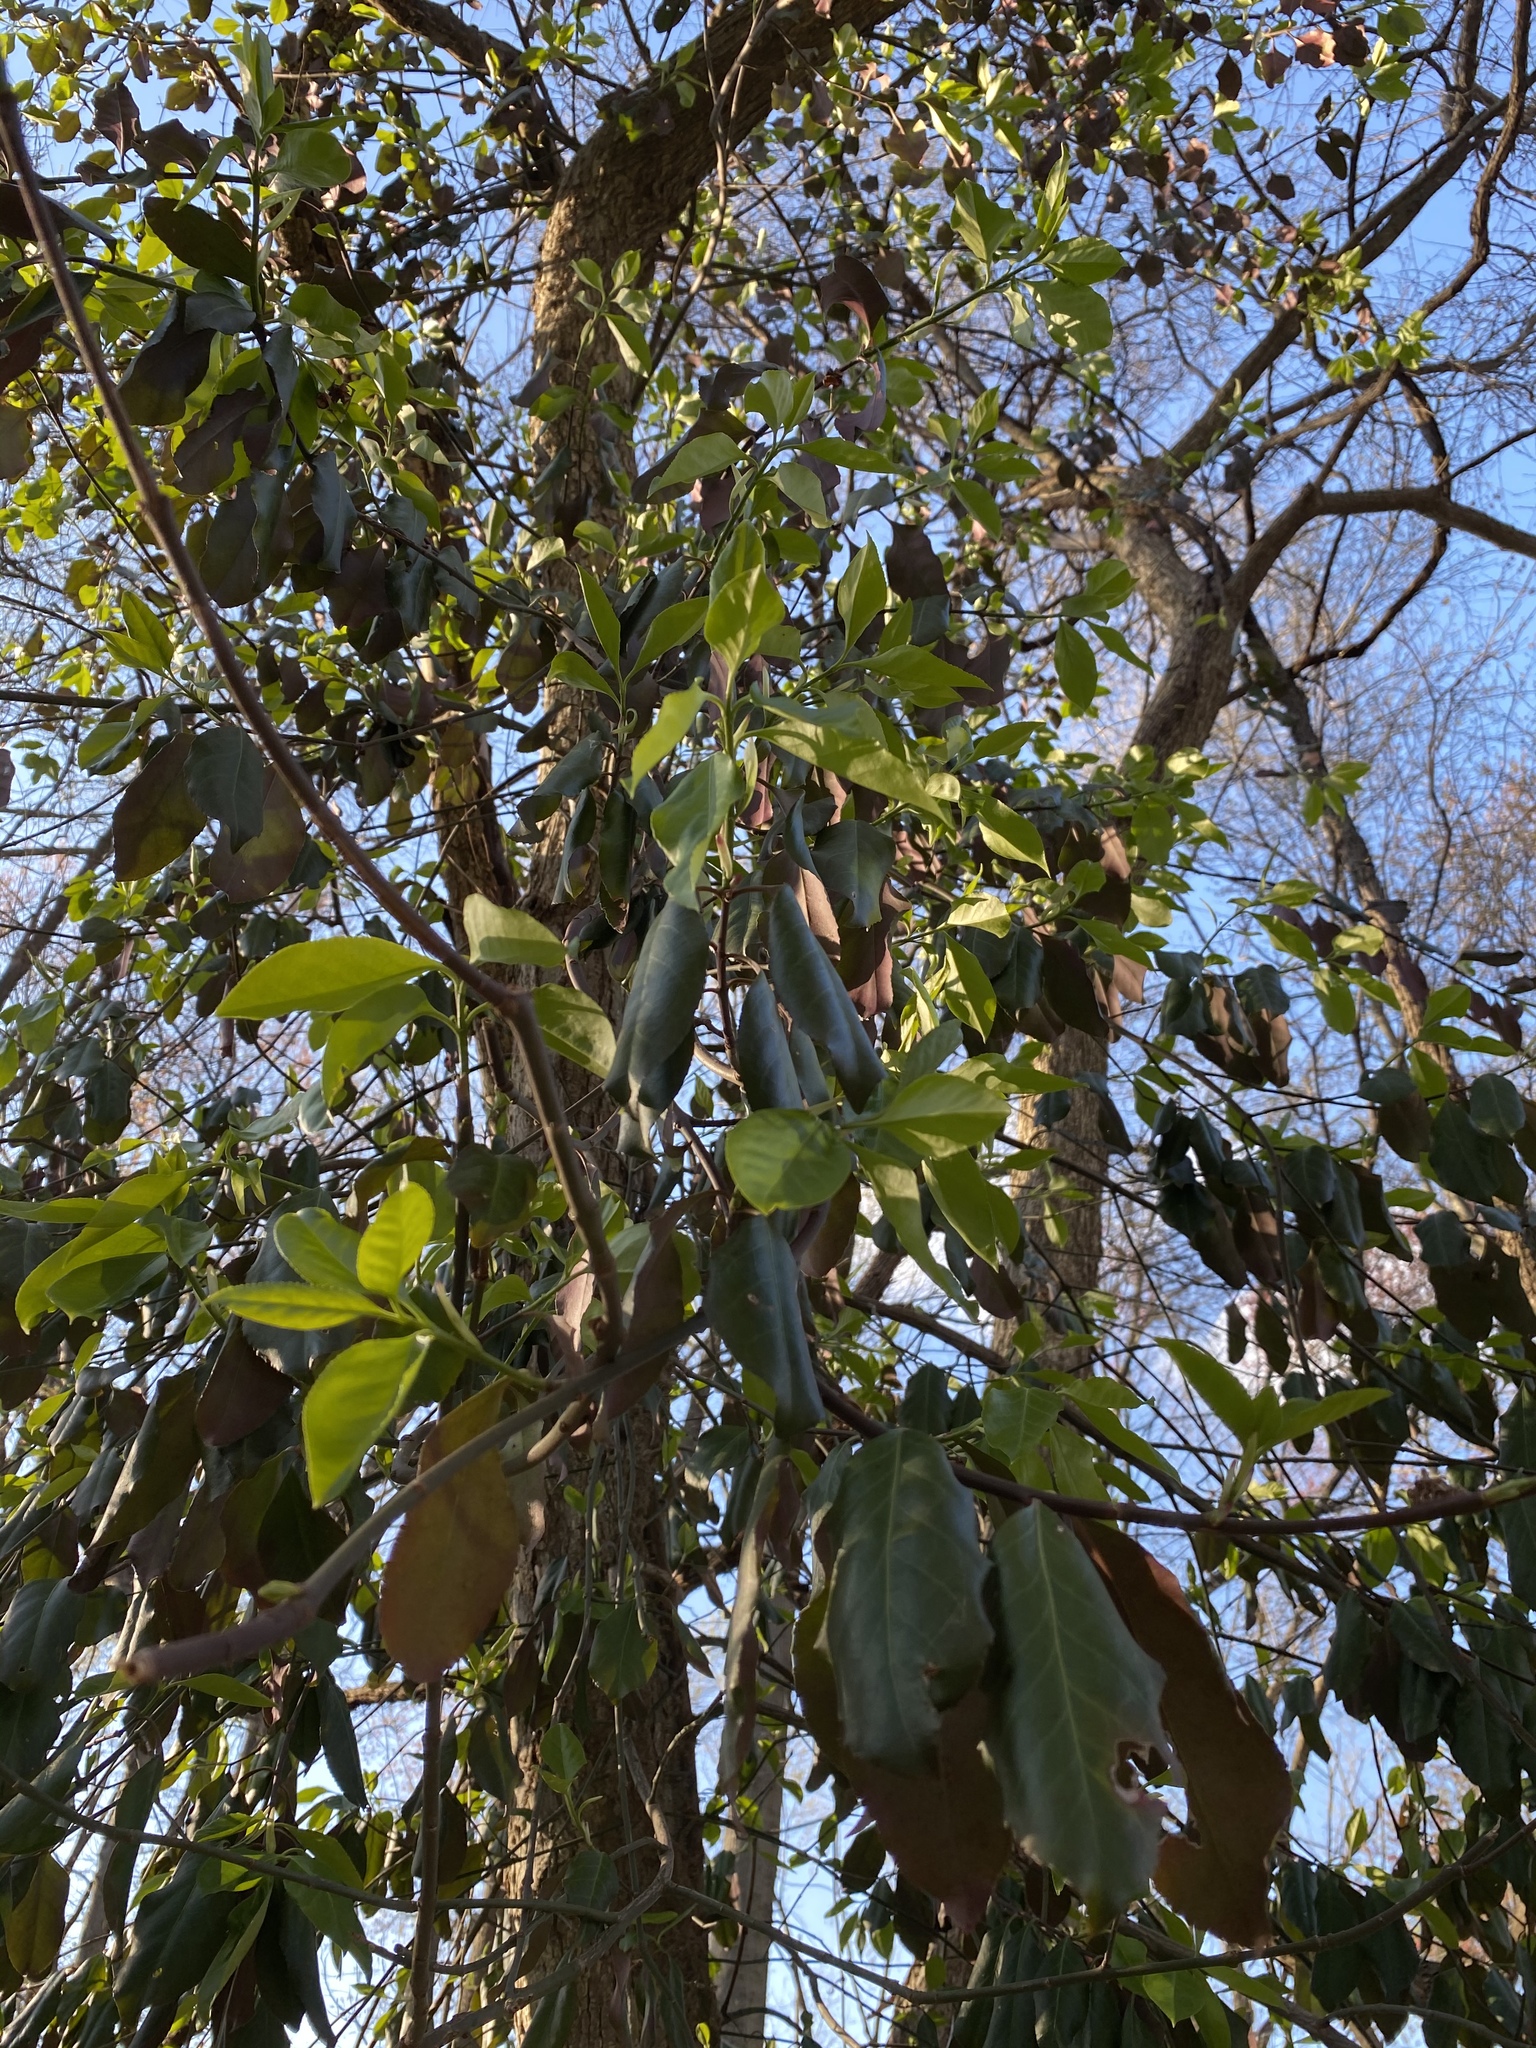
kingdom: Plantae
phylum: Tracheophyta
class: Magnoliopsida
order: Celastrales
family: Celastraceae
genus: Euonymus
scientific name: Euonymus fortunei
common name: Climbing euonymus
